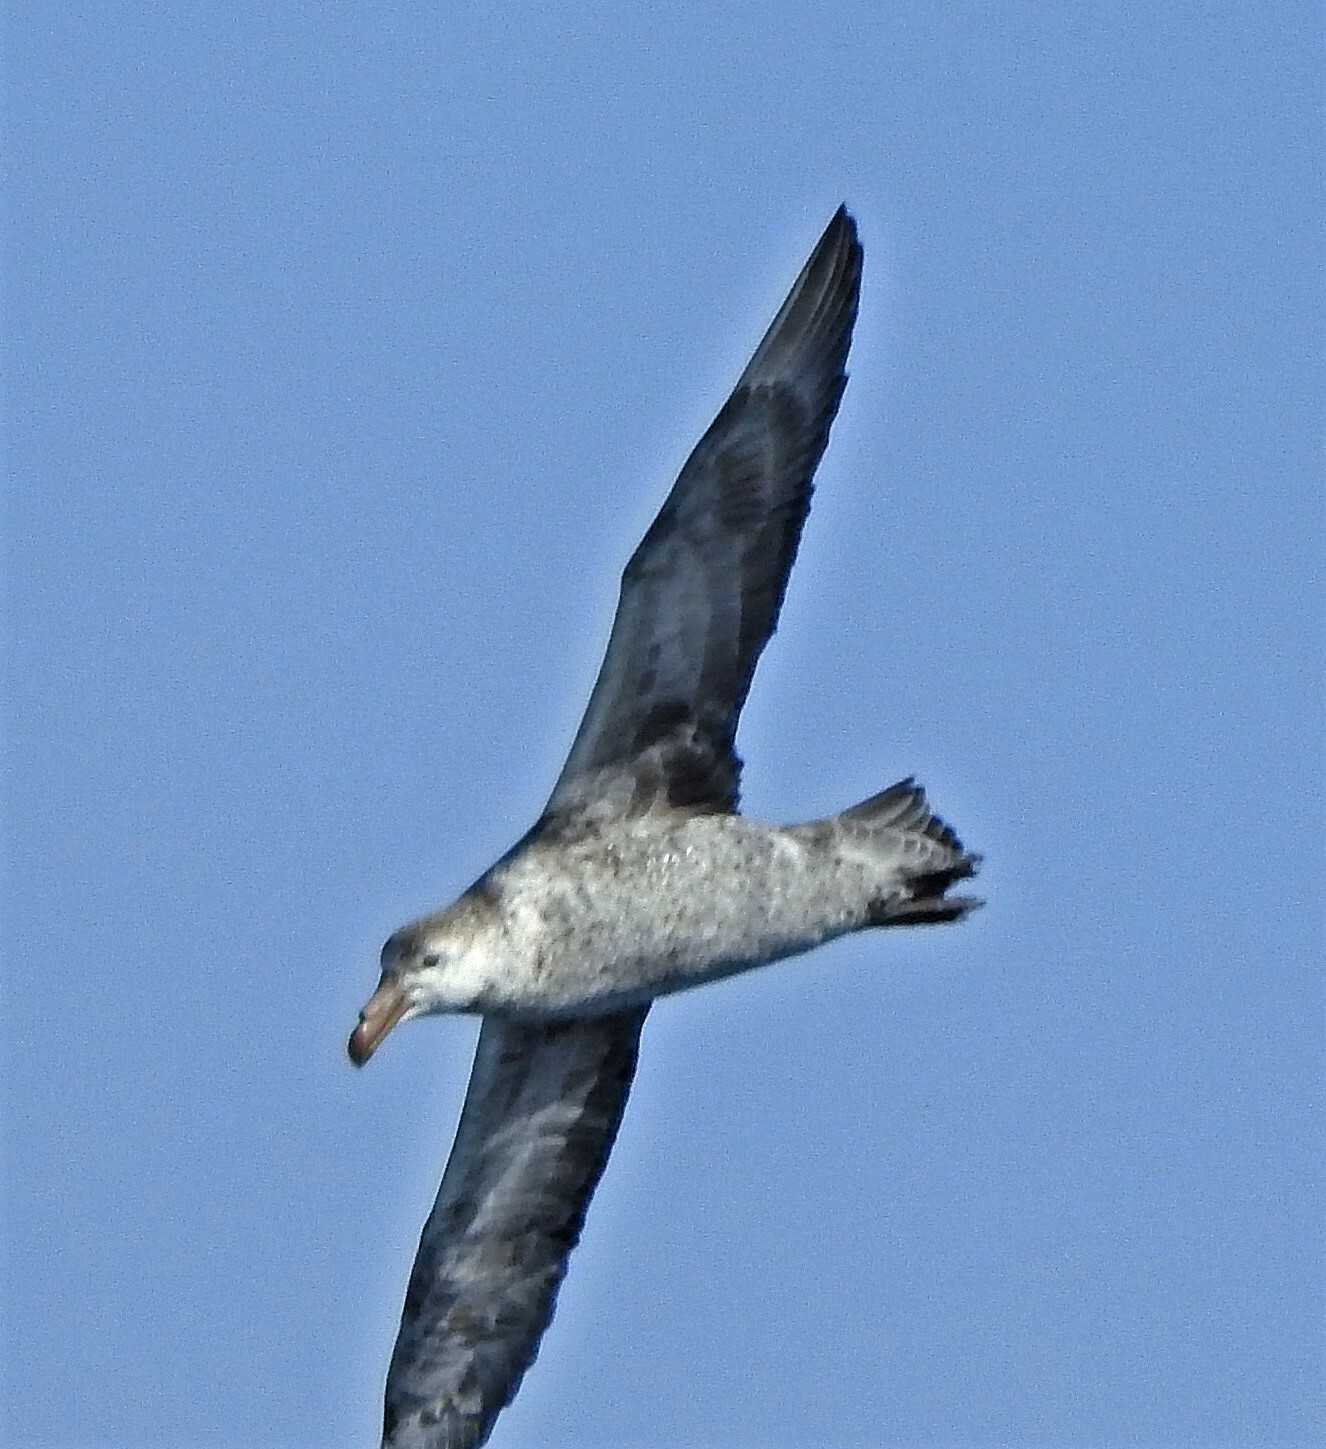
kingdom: Animalia
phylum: Chordata
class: Aves
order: Procellariiformes
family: Procellariidae
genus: Macronectes
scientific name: Macronectes halli
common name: Northern giant petrel
